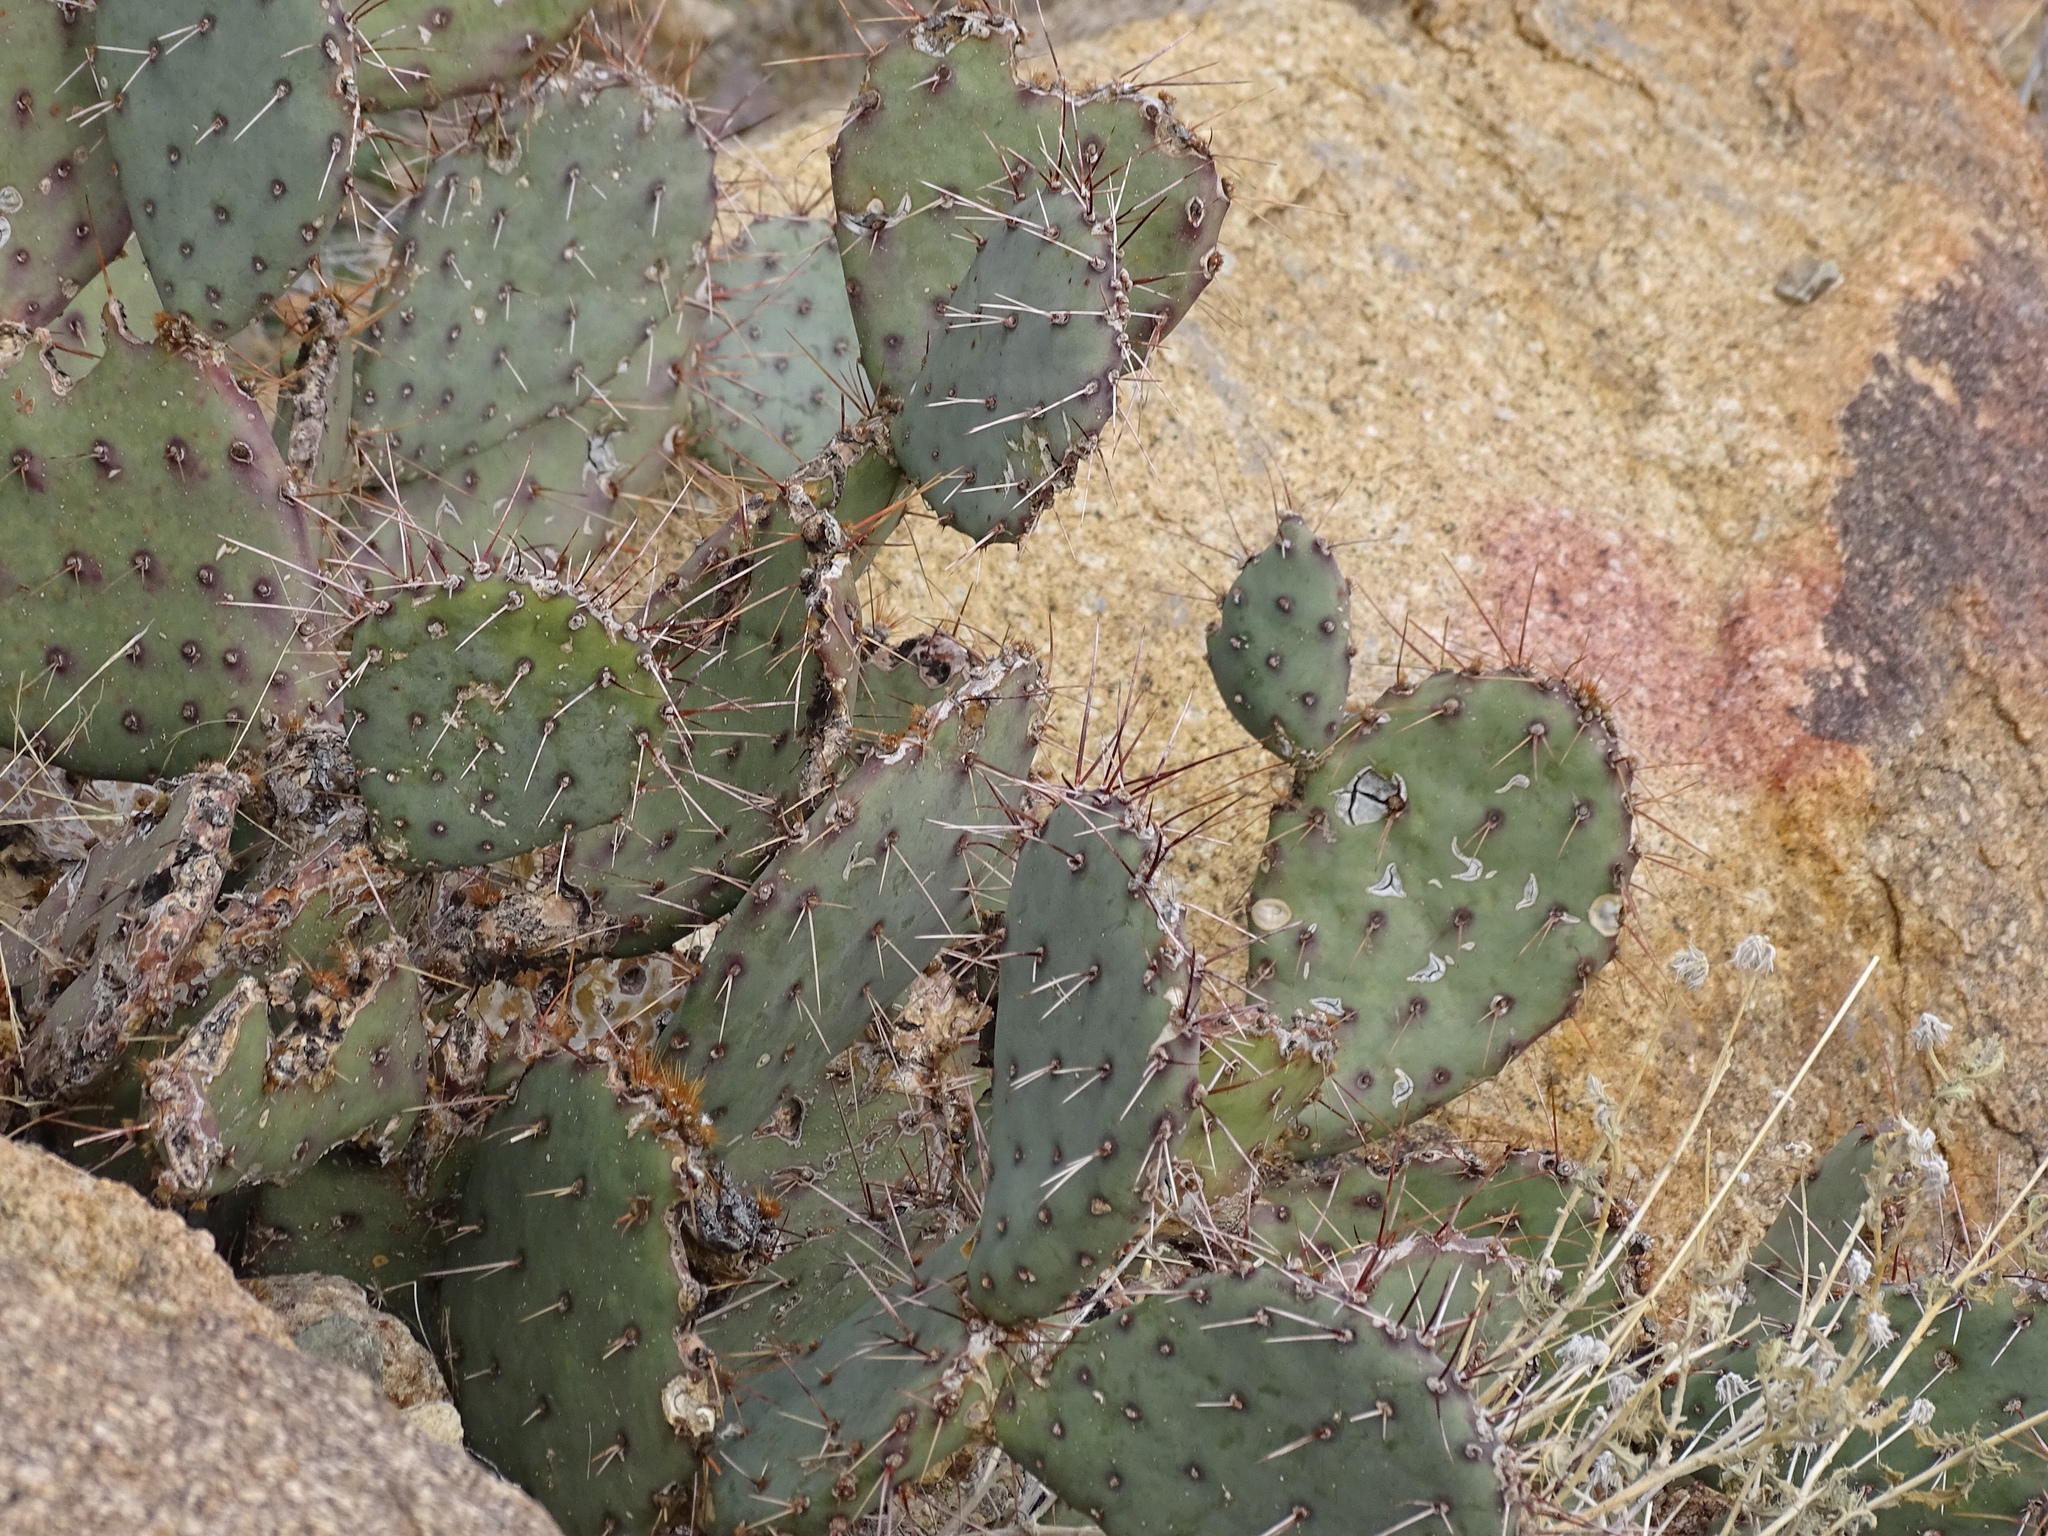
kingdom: Plantae
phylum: Tracheophyta
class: Magnoliopsida
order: Caryophyllales
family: Cactaceae
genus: Opuntia
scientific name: Opuntia phaeacantha
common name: New mexico prickly-pear
